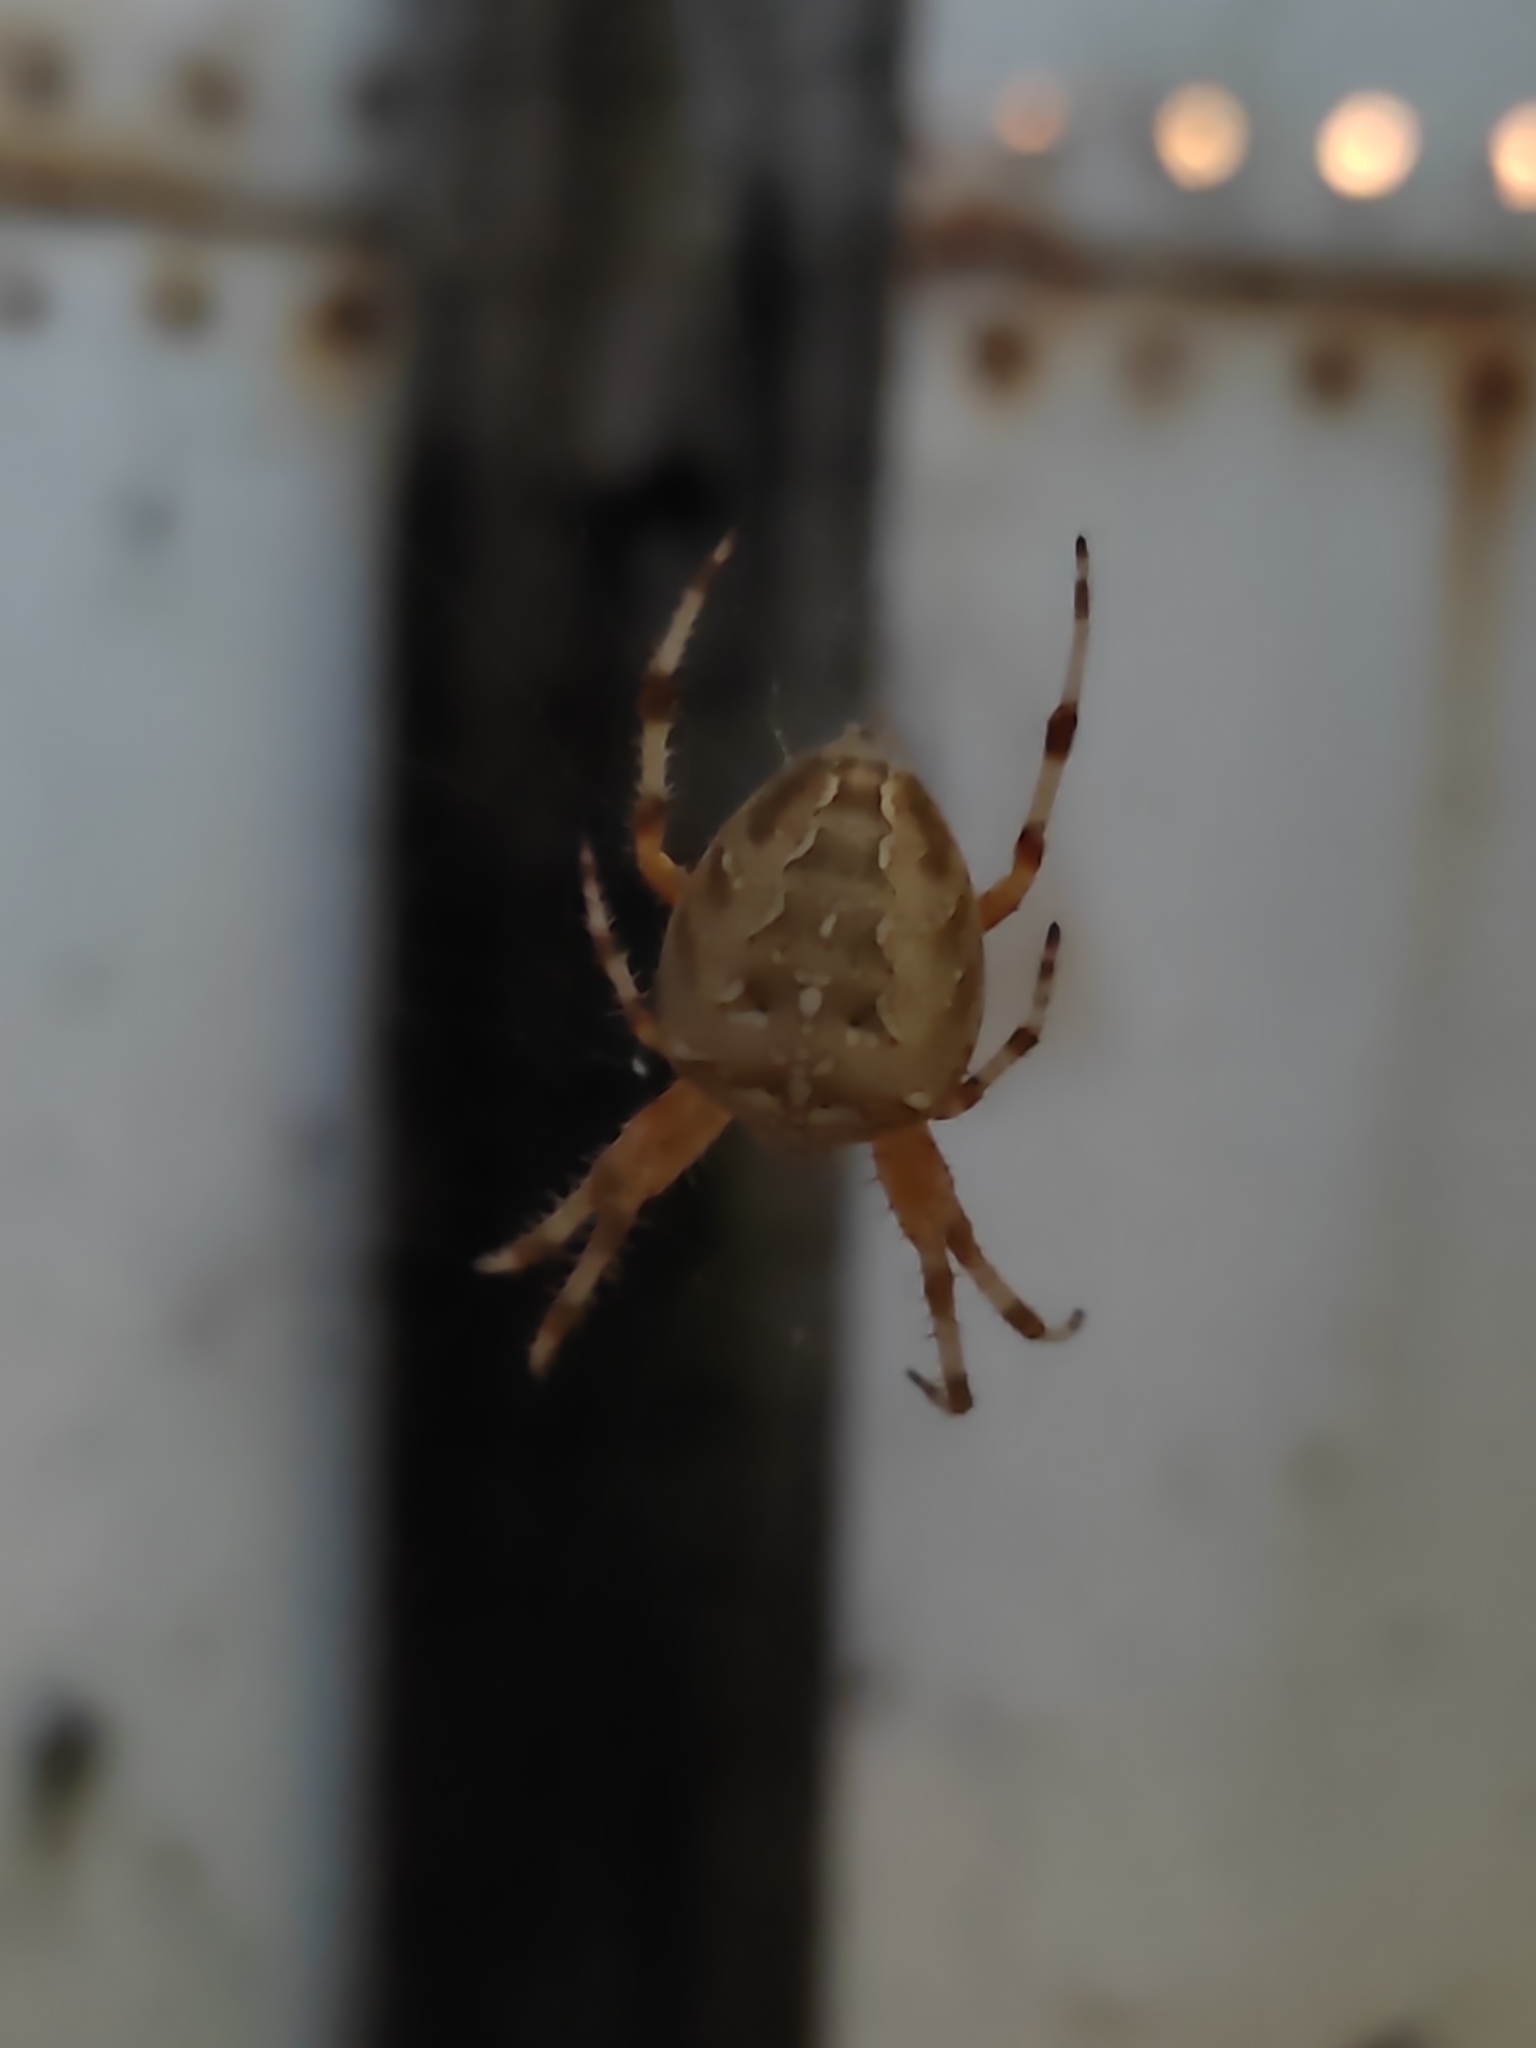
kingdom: Animalia
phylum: Arthropoda
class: Arachnida
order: Araneae
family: Araneidae
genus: Araneus
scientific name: Araneus diadematus
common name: Cross orbweaver
